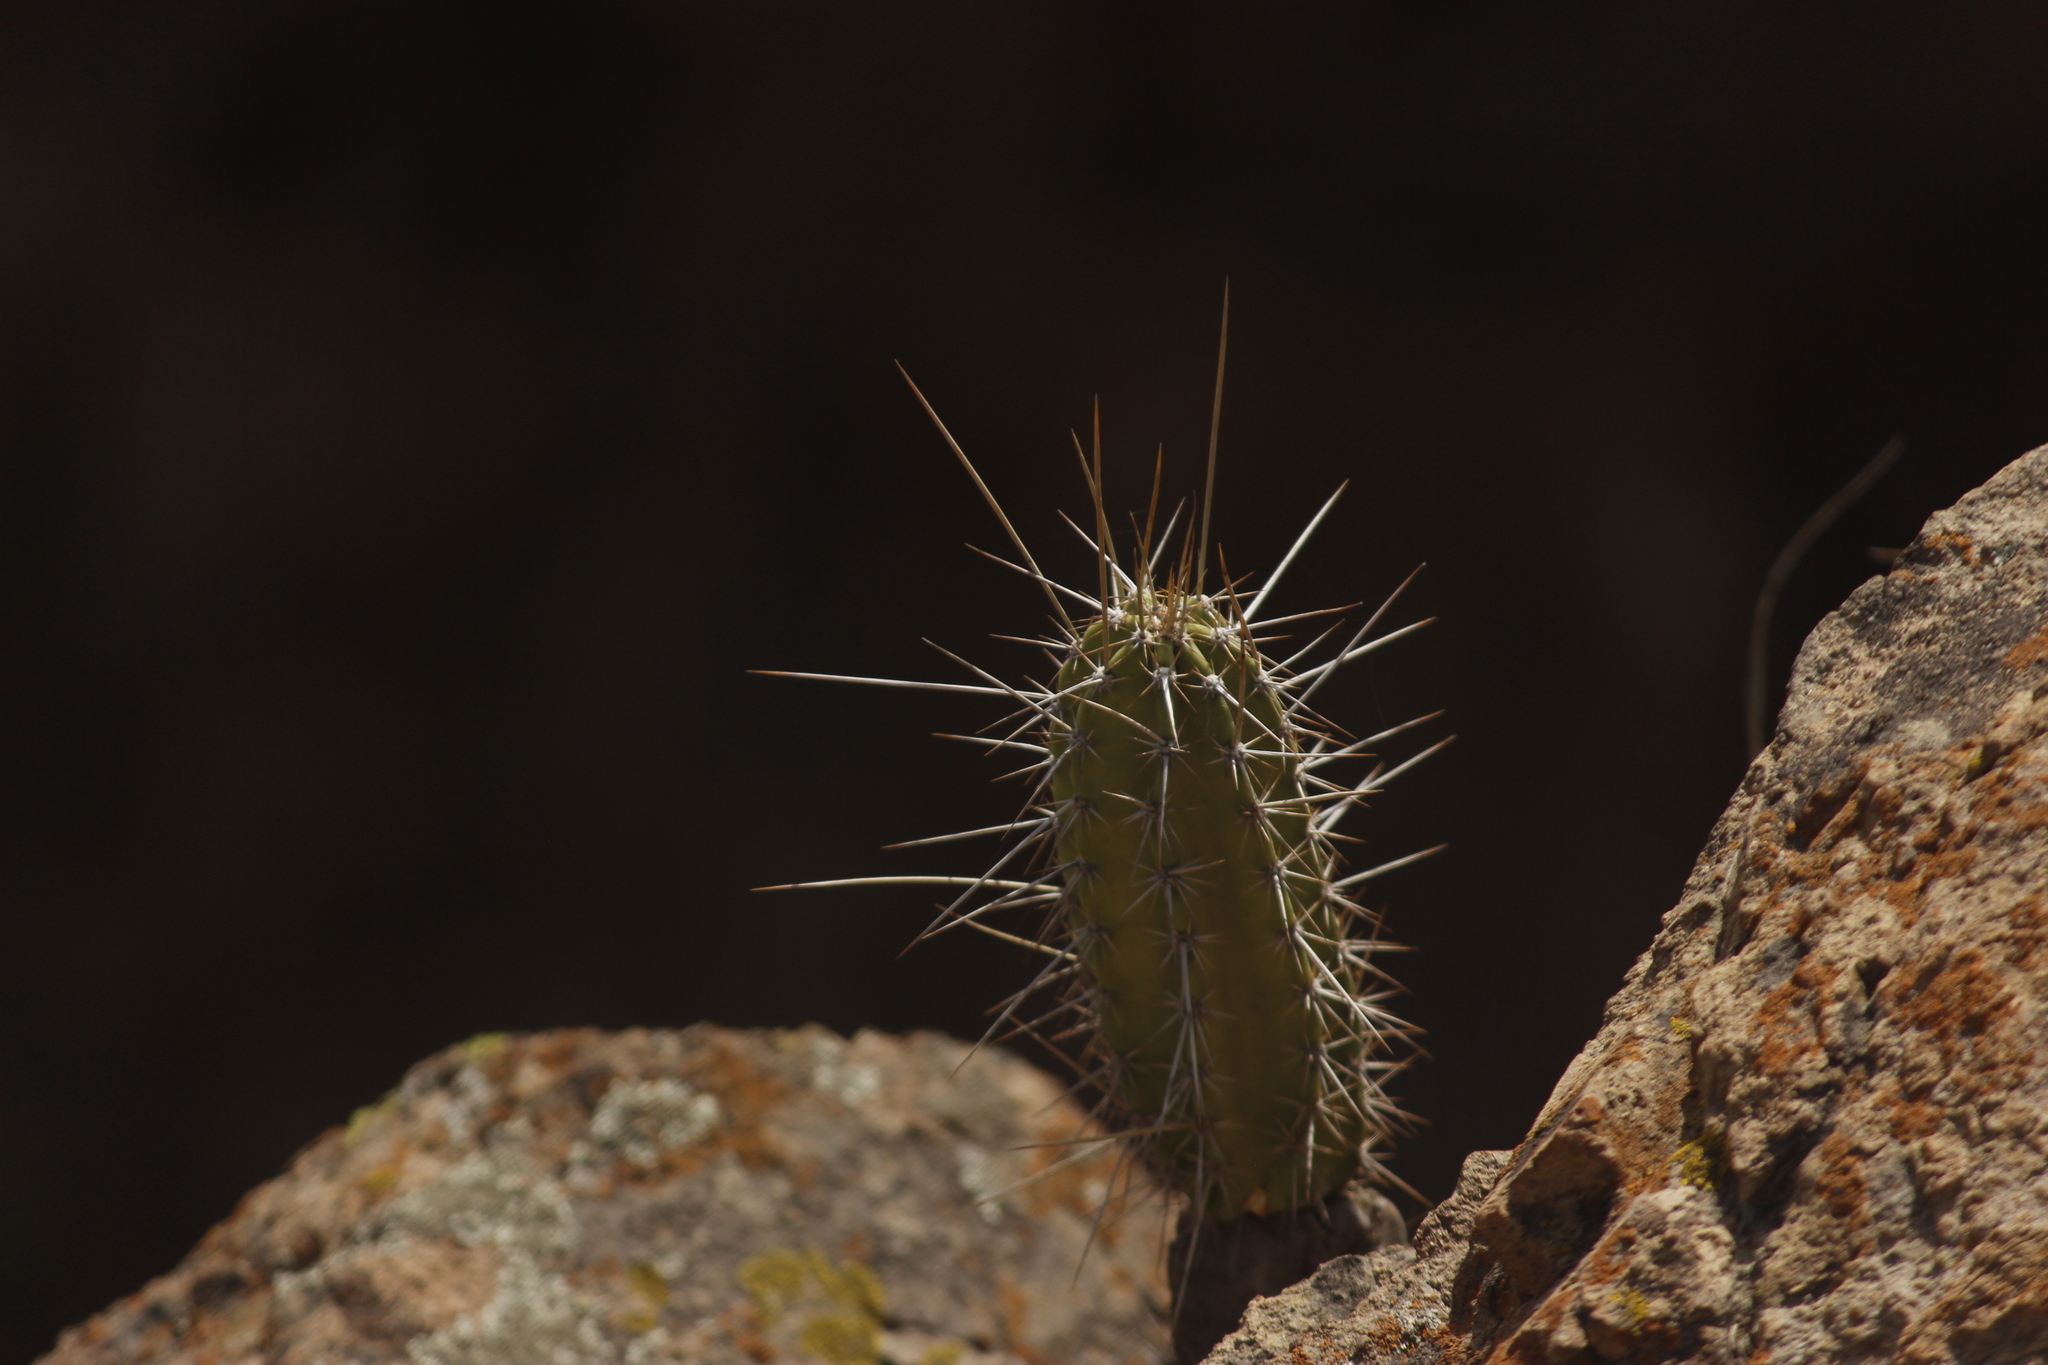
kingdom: Plantae
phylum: Tracheophyta
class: Magnoliopsida
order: Caryophyllales
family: Cactaceae
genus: Armatocereus
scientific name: Armatocereus matucanensis
